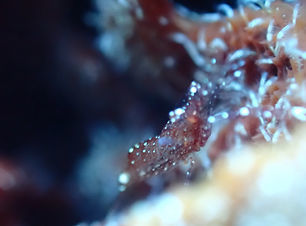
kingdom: Animalia
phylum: Arthropoda
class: Malacostraca
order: Decapoda
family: Palaemonidae
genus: Periclimenes
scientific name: Periclimenes rathbunae
